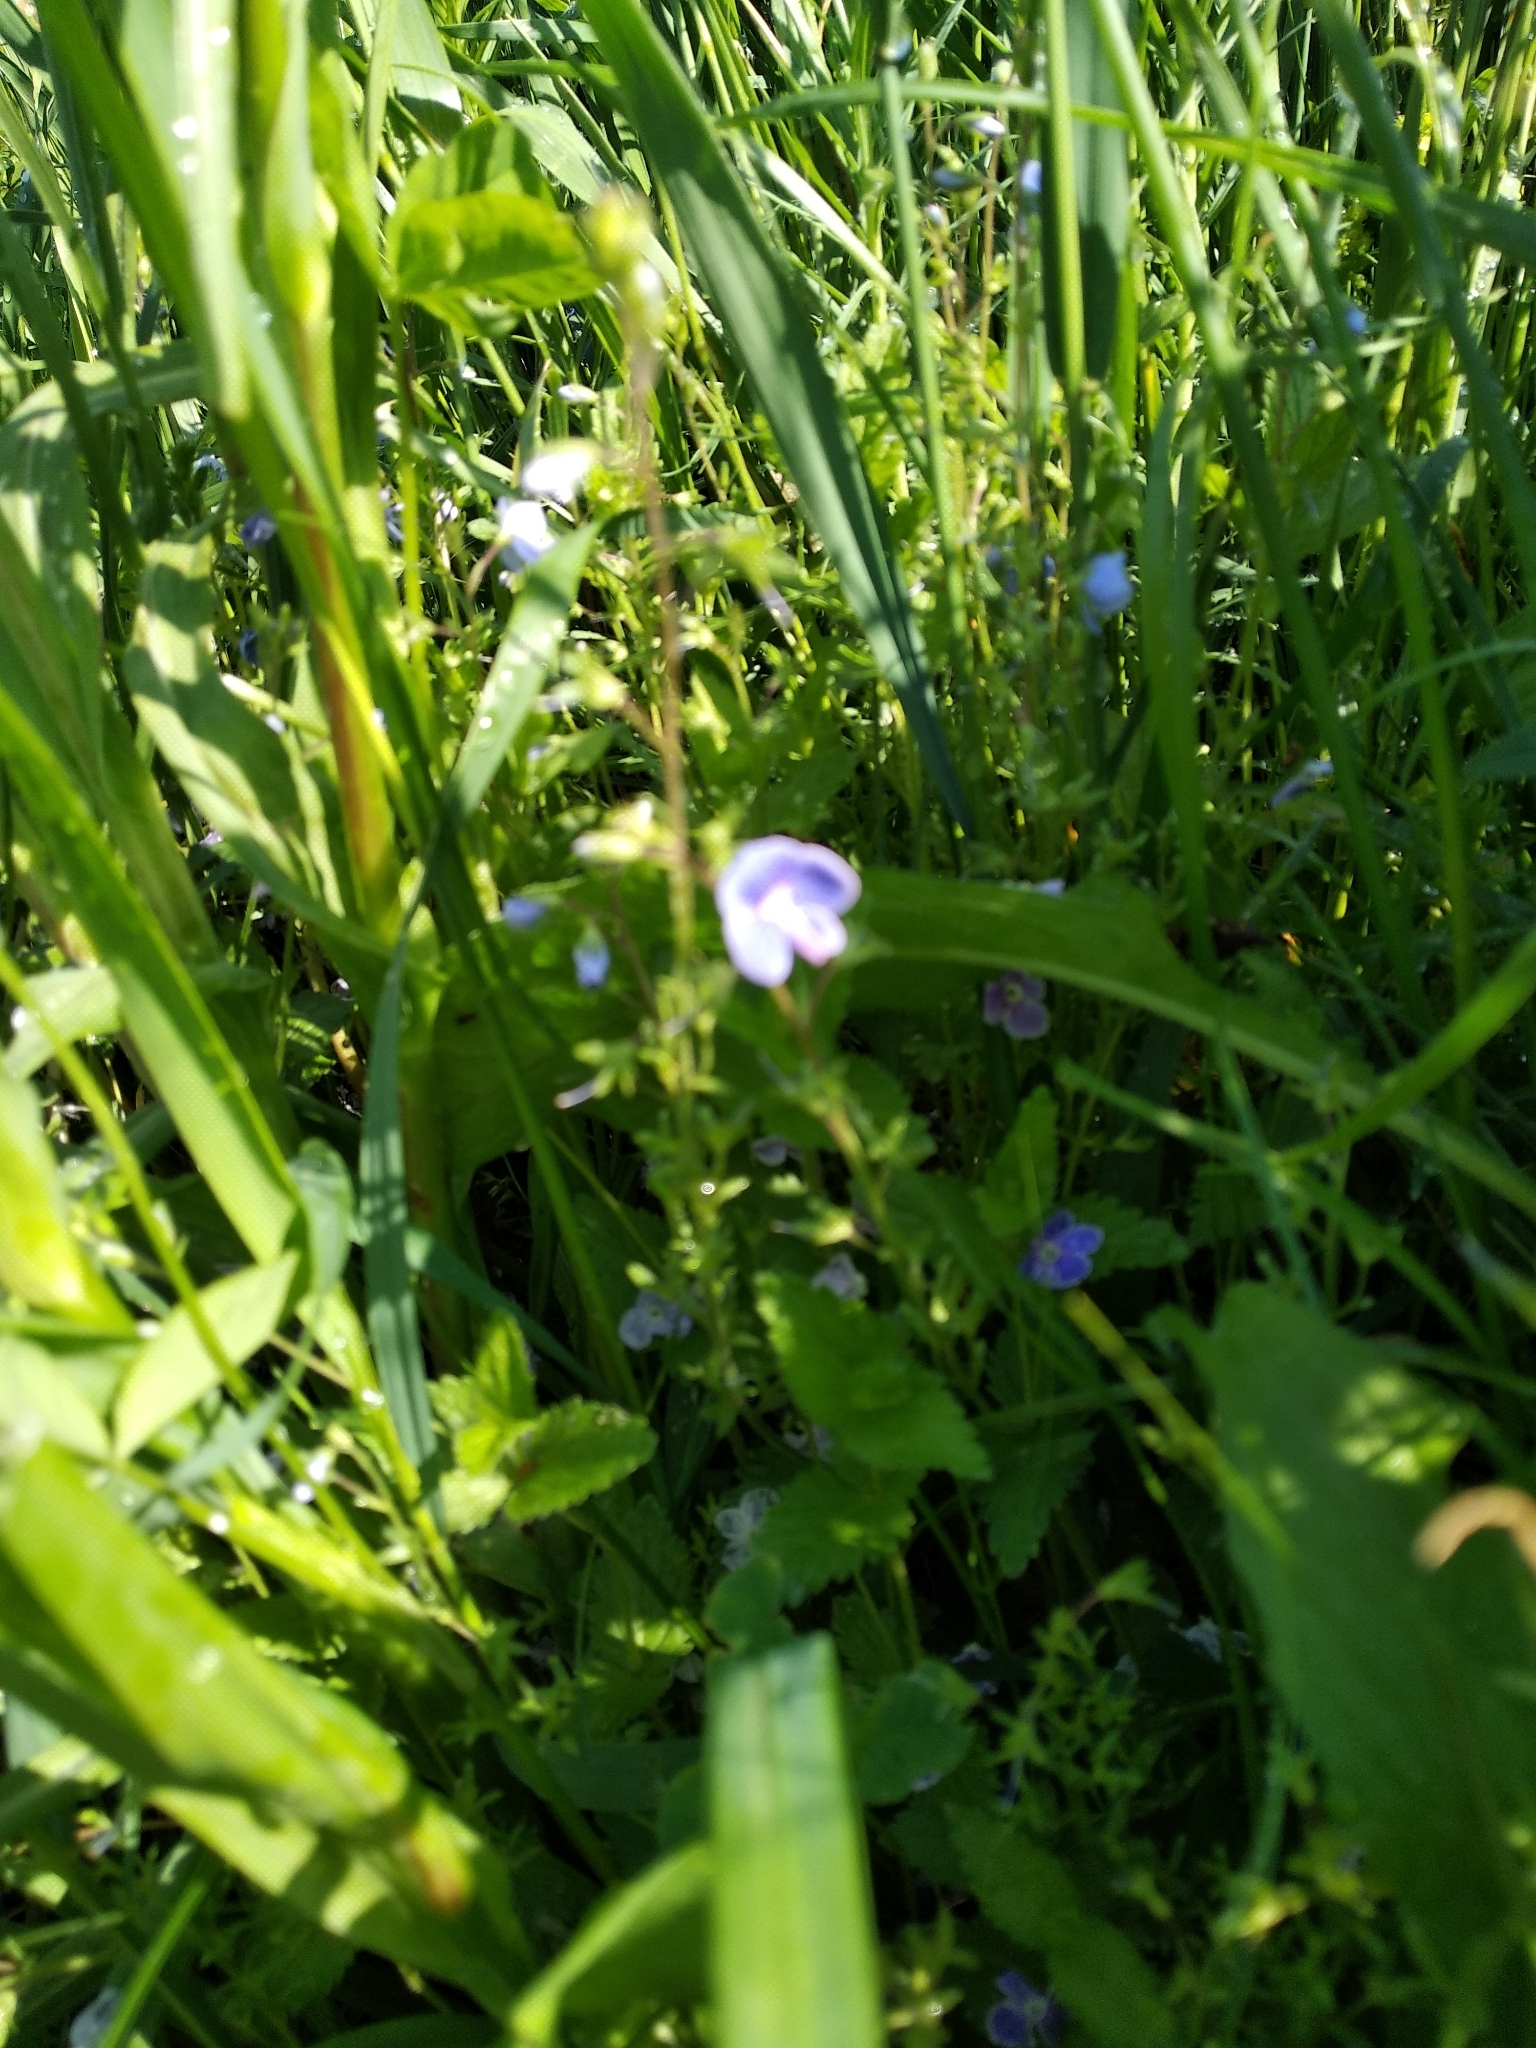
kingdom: Plantae
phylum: Tracheophyta
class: Magnoliopsida
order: Lamiales
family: Plantaginaceae
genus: Veronica
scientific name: Veronica chamaedrys
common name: Germander speedwell
